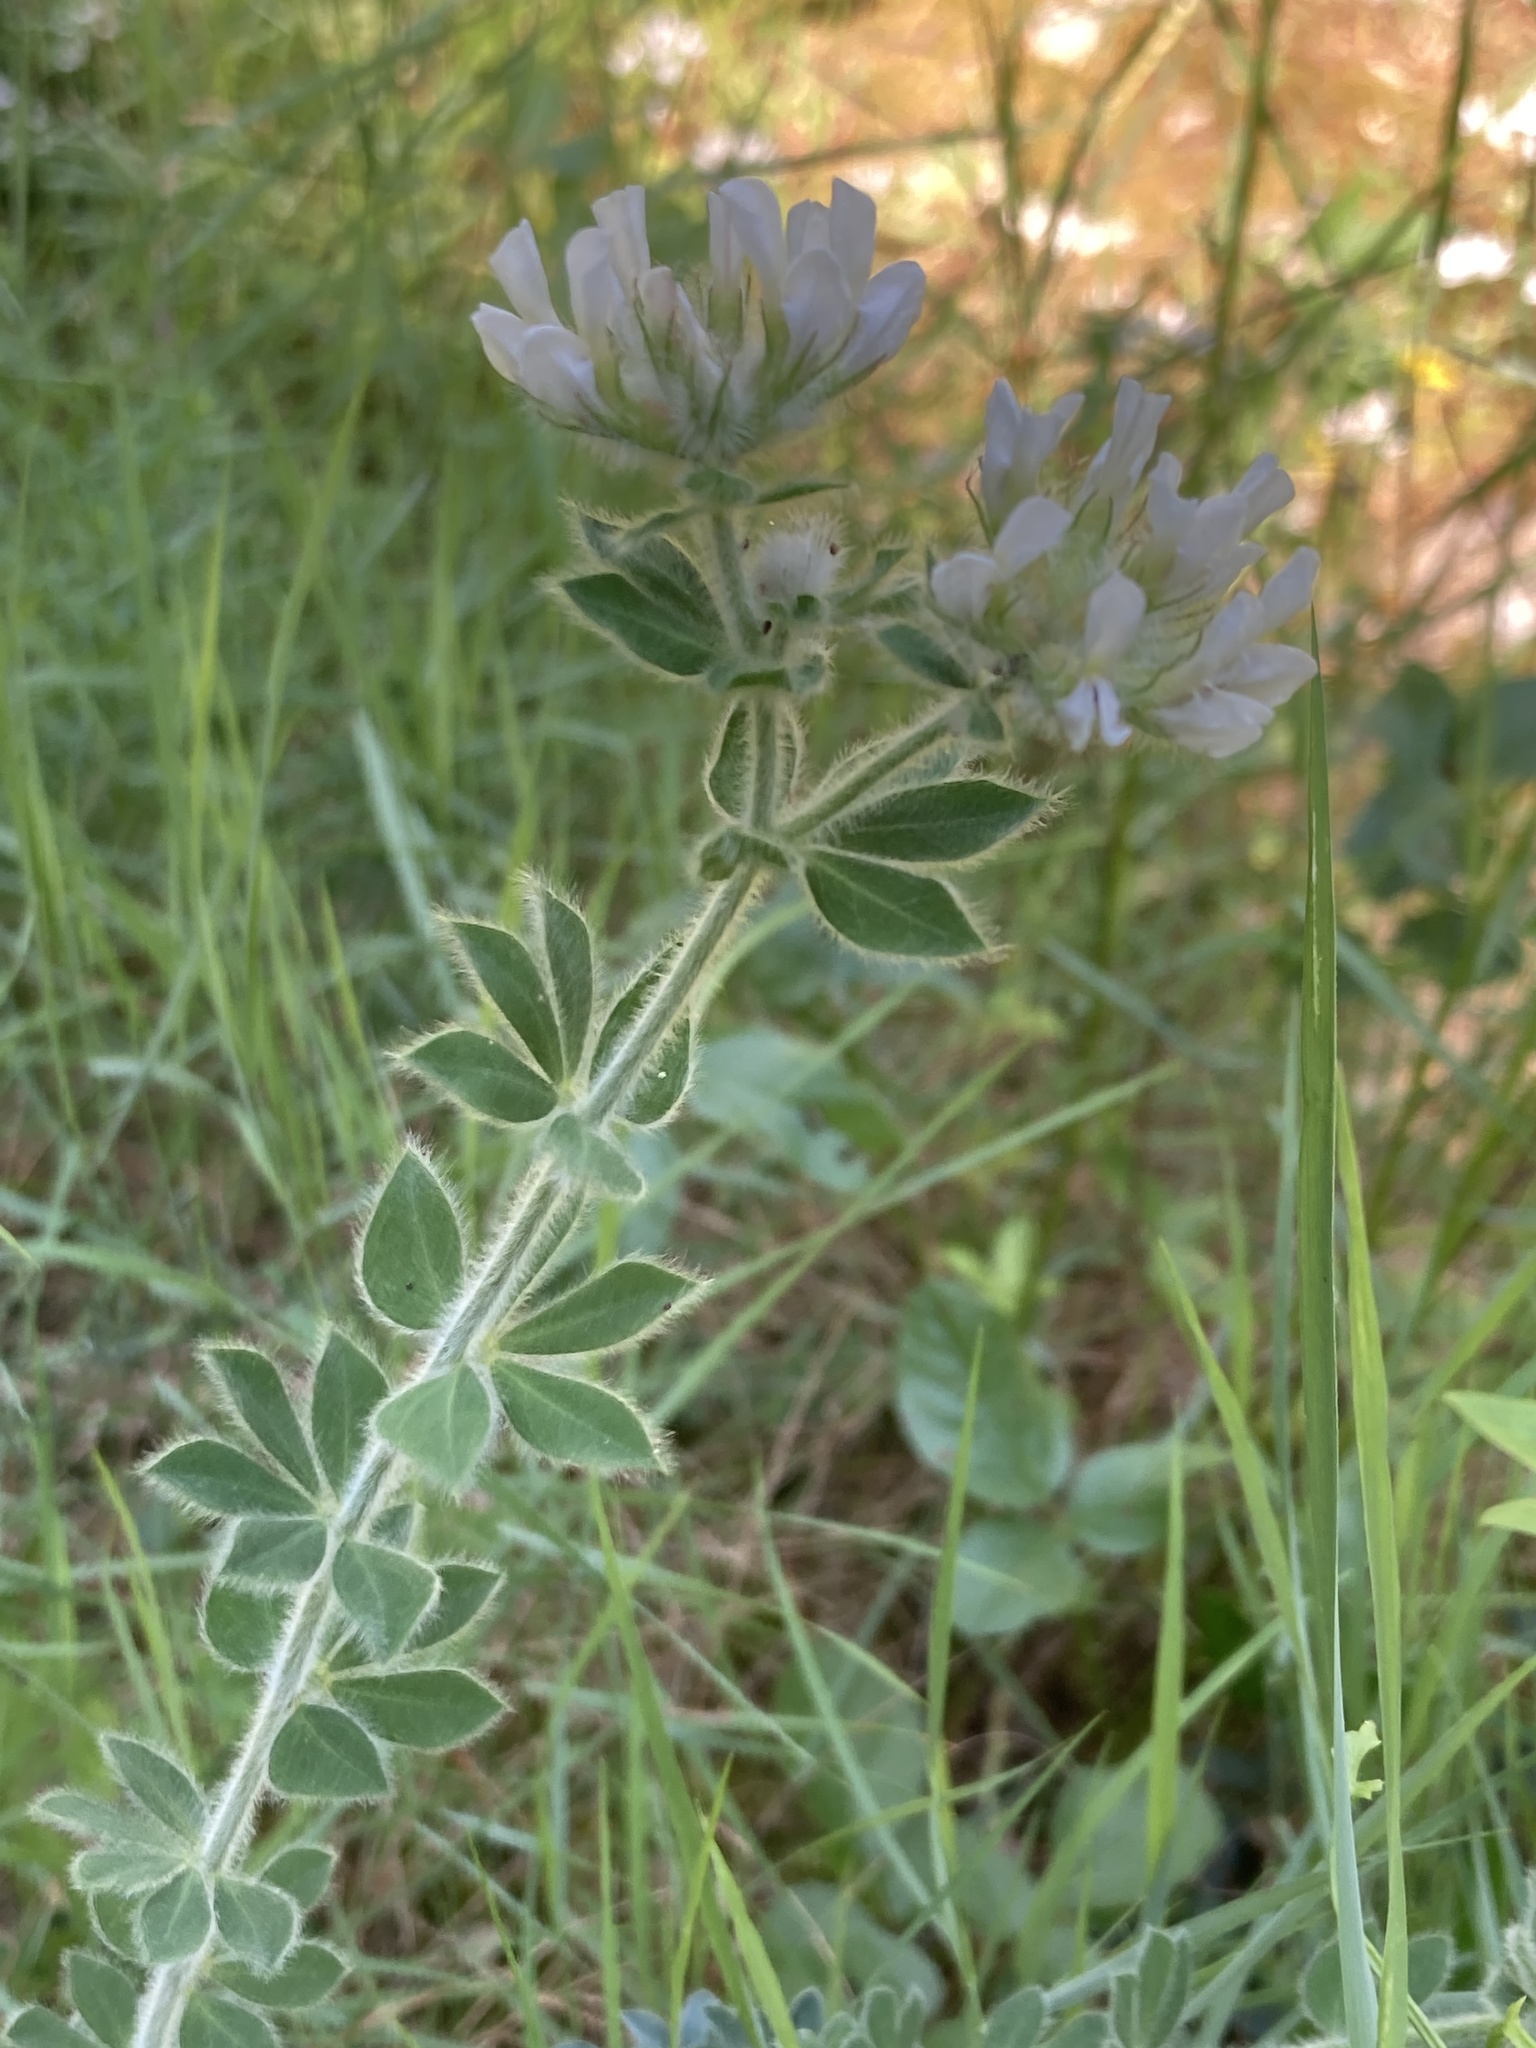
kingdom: Plantae
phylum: Tracheophyta
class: Magnoliopsida
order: Fabales
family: Fabaceae
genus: Lotus
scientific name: Lotus hirsutus
